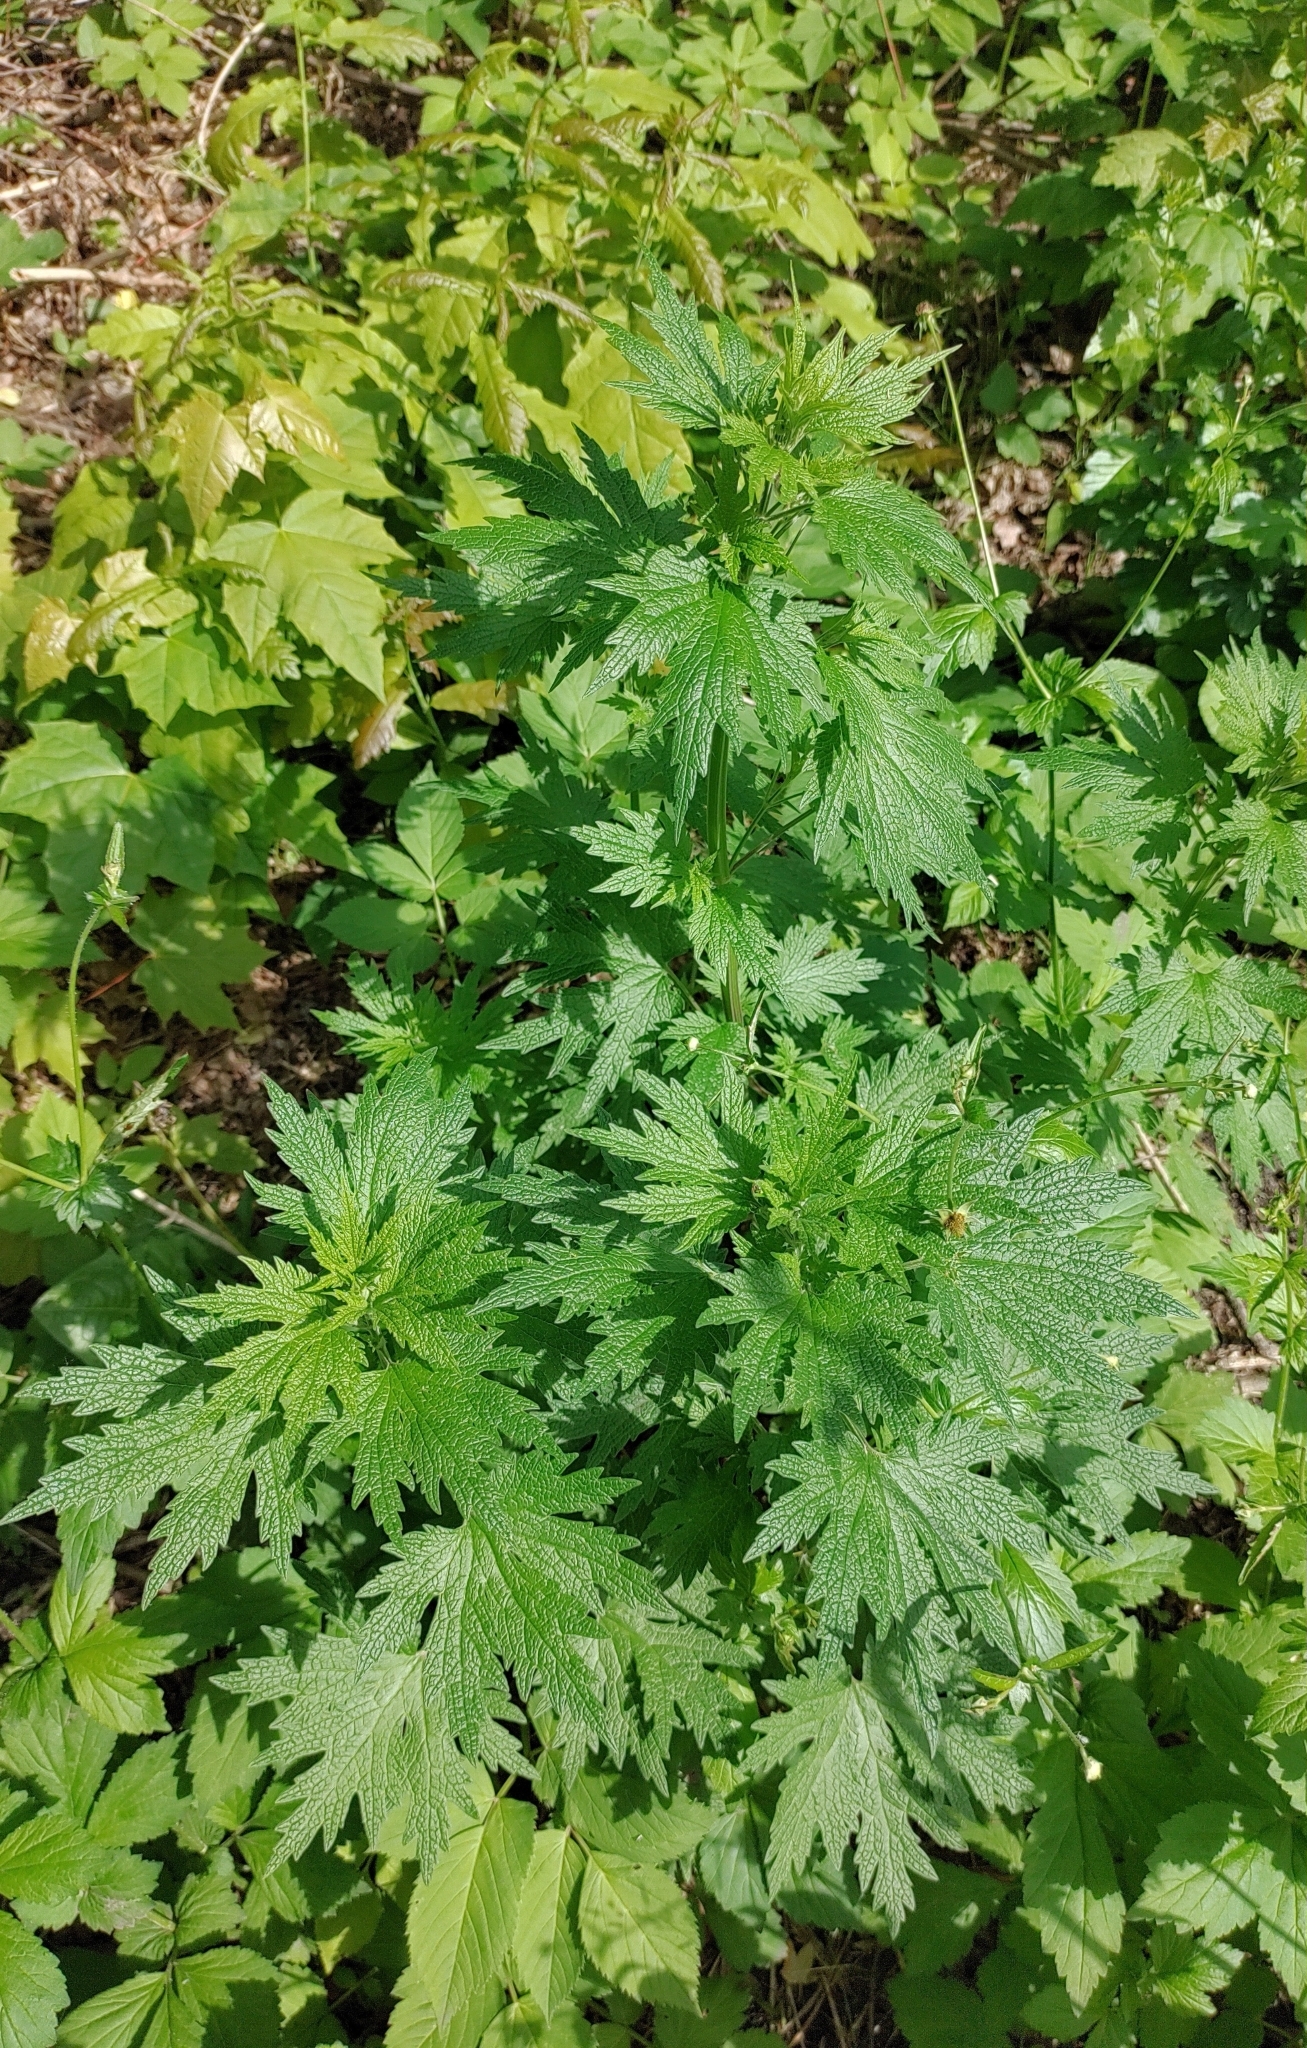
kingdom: Plantae
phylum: Tracheophyta
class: Magnoliopsida
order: Lamiales
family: Lamiaceae
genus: Leonurus
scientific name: Leonurus cardiaca
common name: Motherwort
